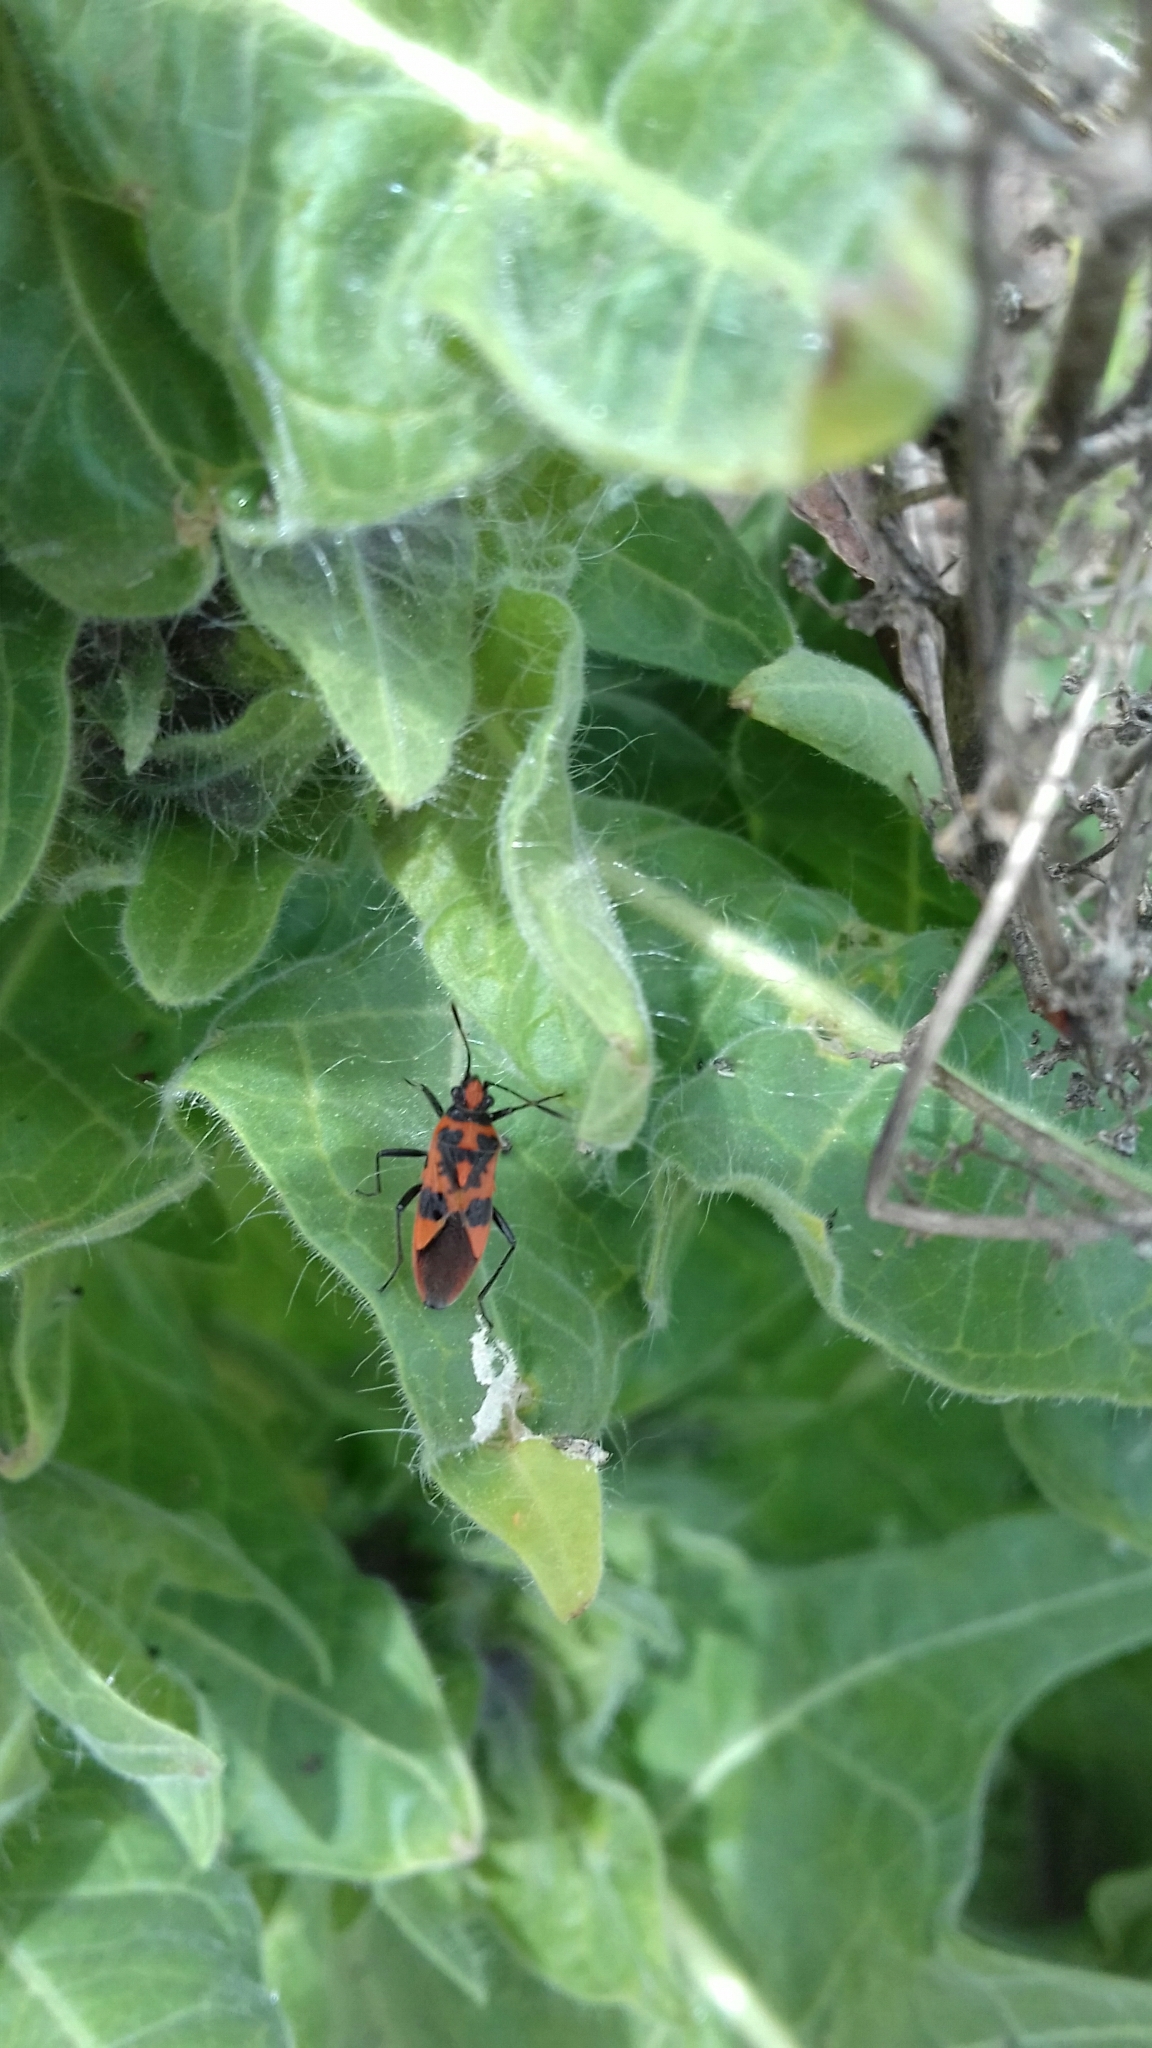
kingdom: Animalia
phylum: Arthropoda
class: Insecta
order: Hemiptera
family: Rhopalidae
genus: Corizus
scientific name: Corizus hyoscyami
